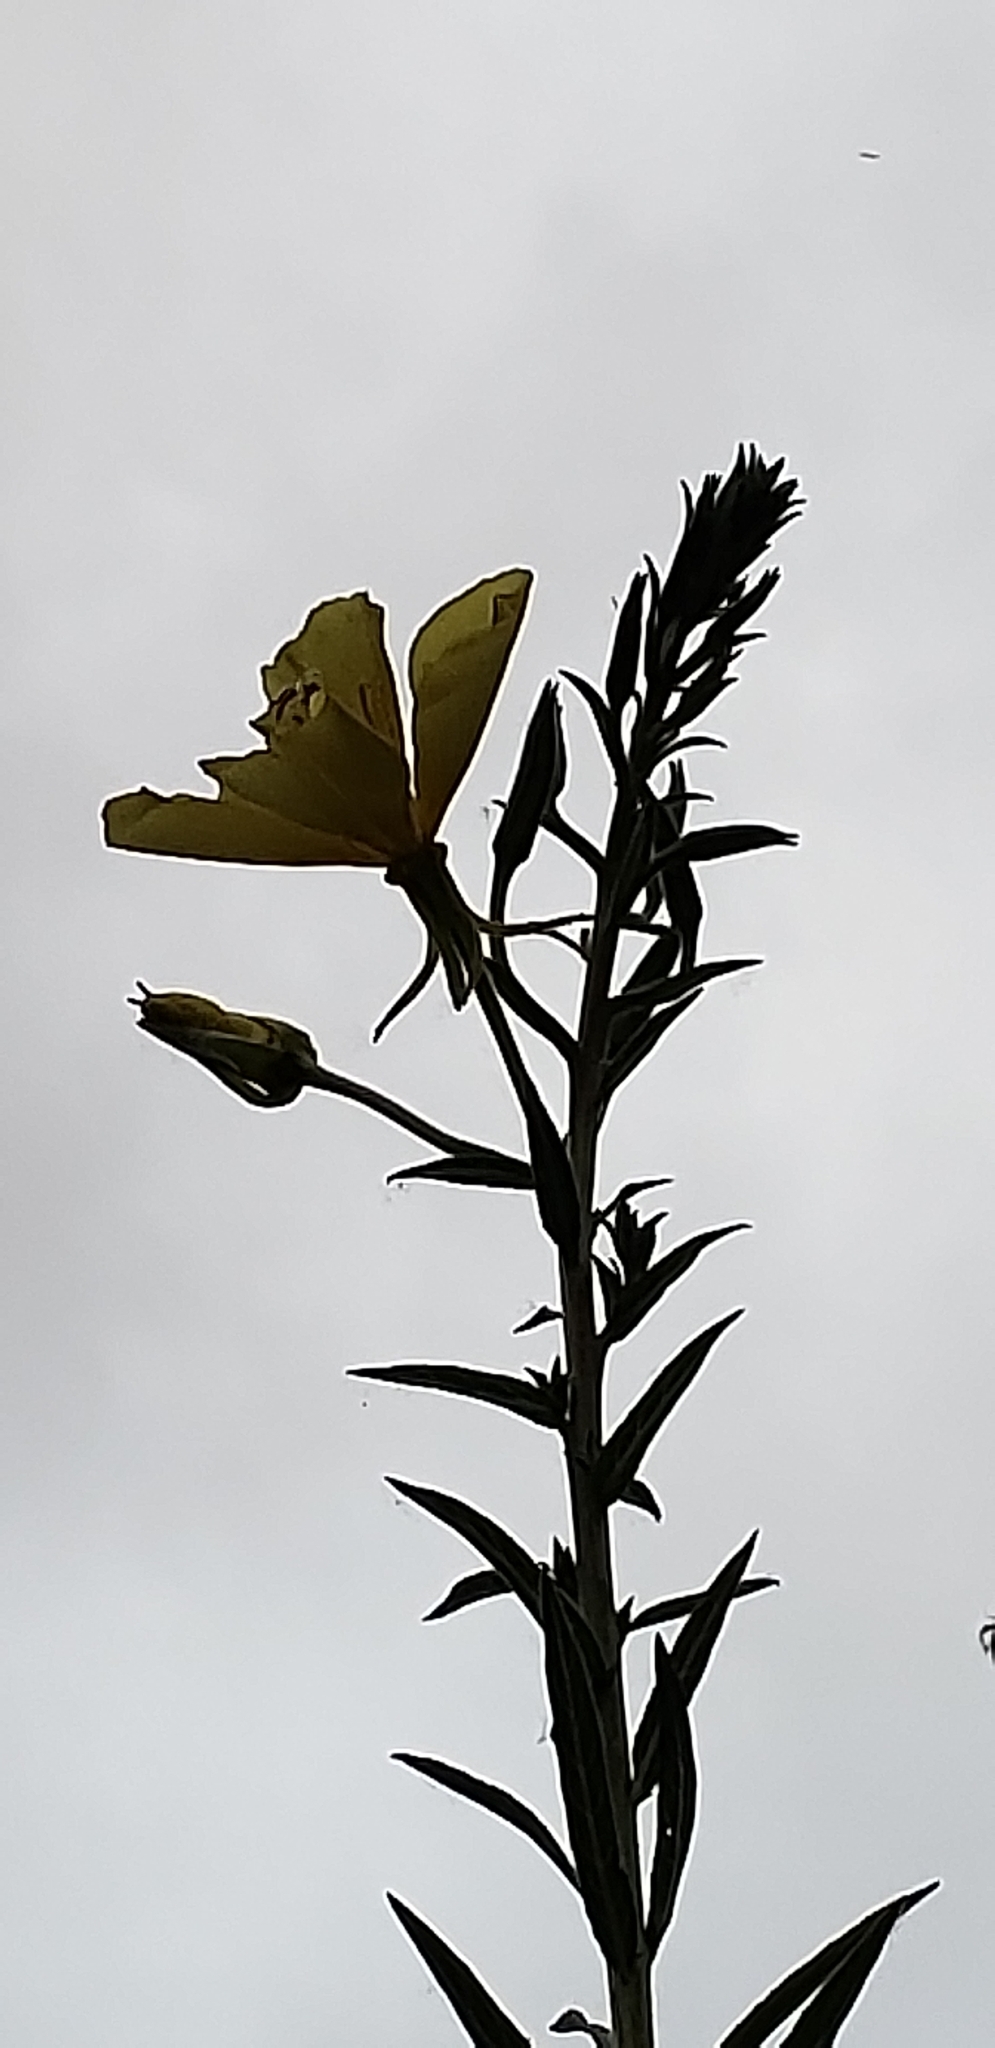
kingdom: Plantae
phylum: Tracheophyta
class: Magnoliopsida
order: Myrtales
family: Onagraceae
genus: Oenothera
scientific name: Oenothera elata
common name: Hooker's evening-primrose
